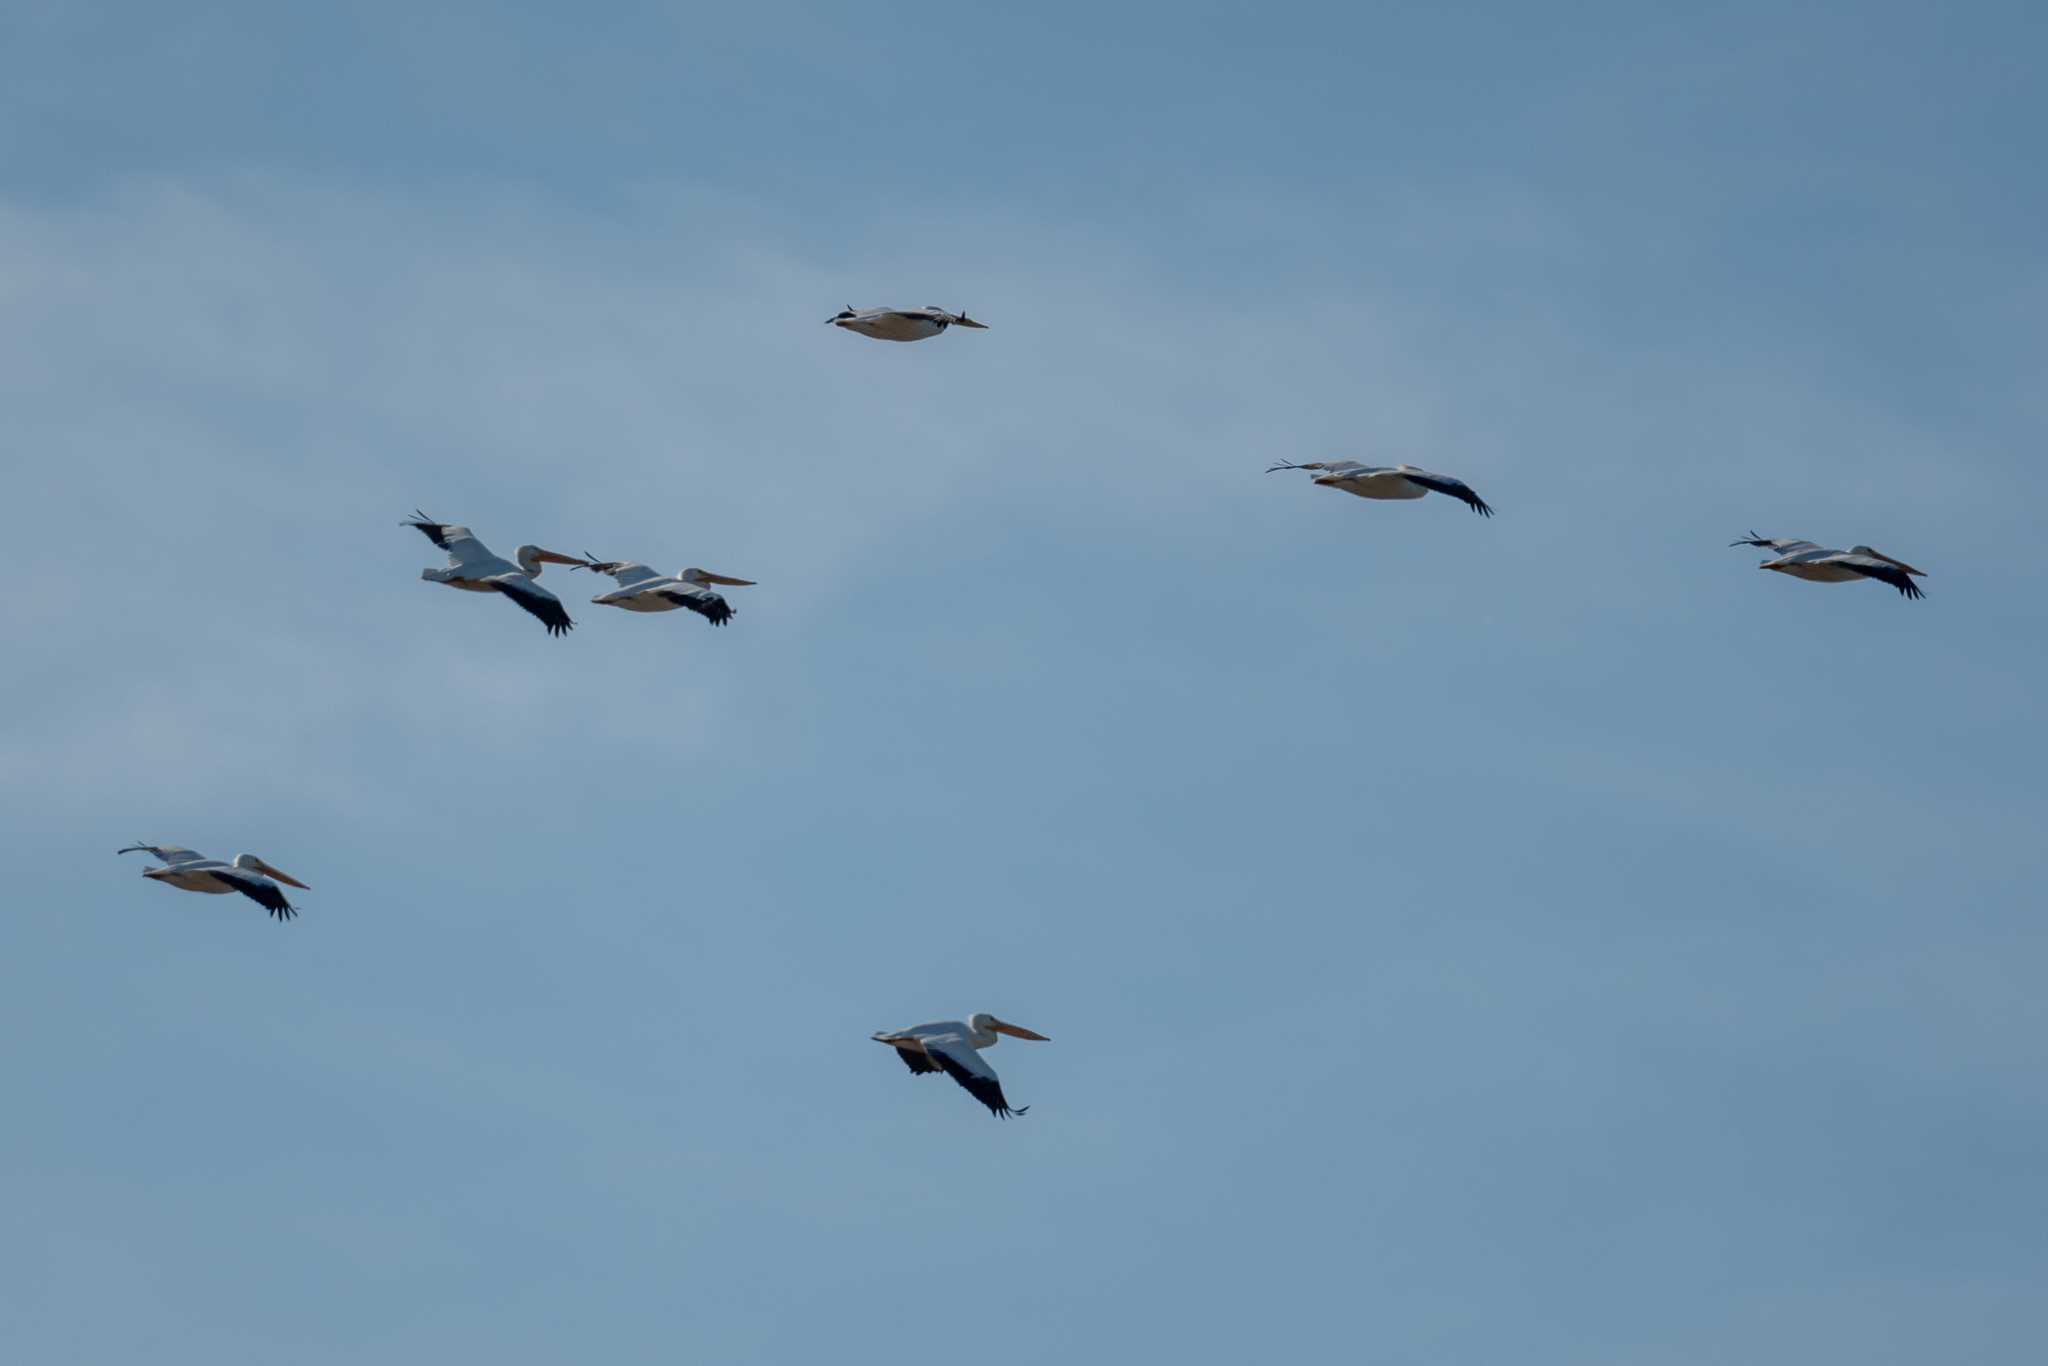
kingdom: Animalia
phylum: Chordata
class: Aves
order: Pelecaniformes
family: Pelecanidae
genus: Pelecanus
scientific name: Pelecanus erythrorhynchos
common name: American white pelican
